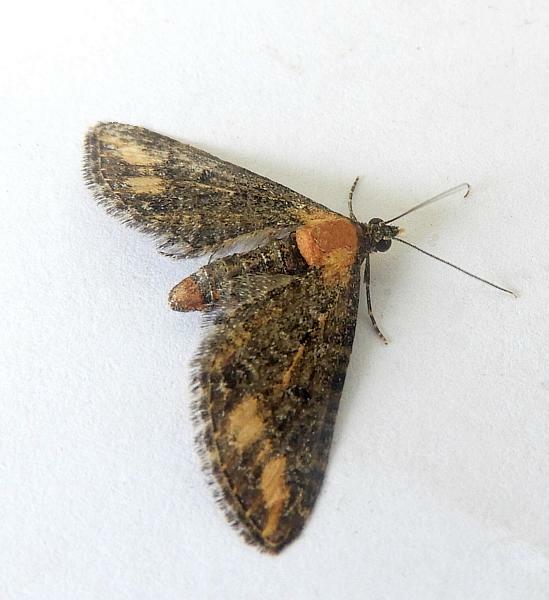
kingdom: Animalia
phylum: Arthropoda
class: Insecta
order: Lepidoptera
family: Geometridae
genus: Eupithecia
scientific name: Eupithecia flavigutta
